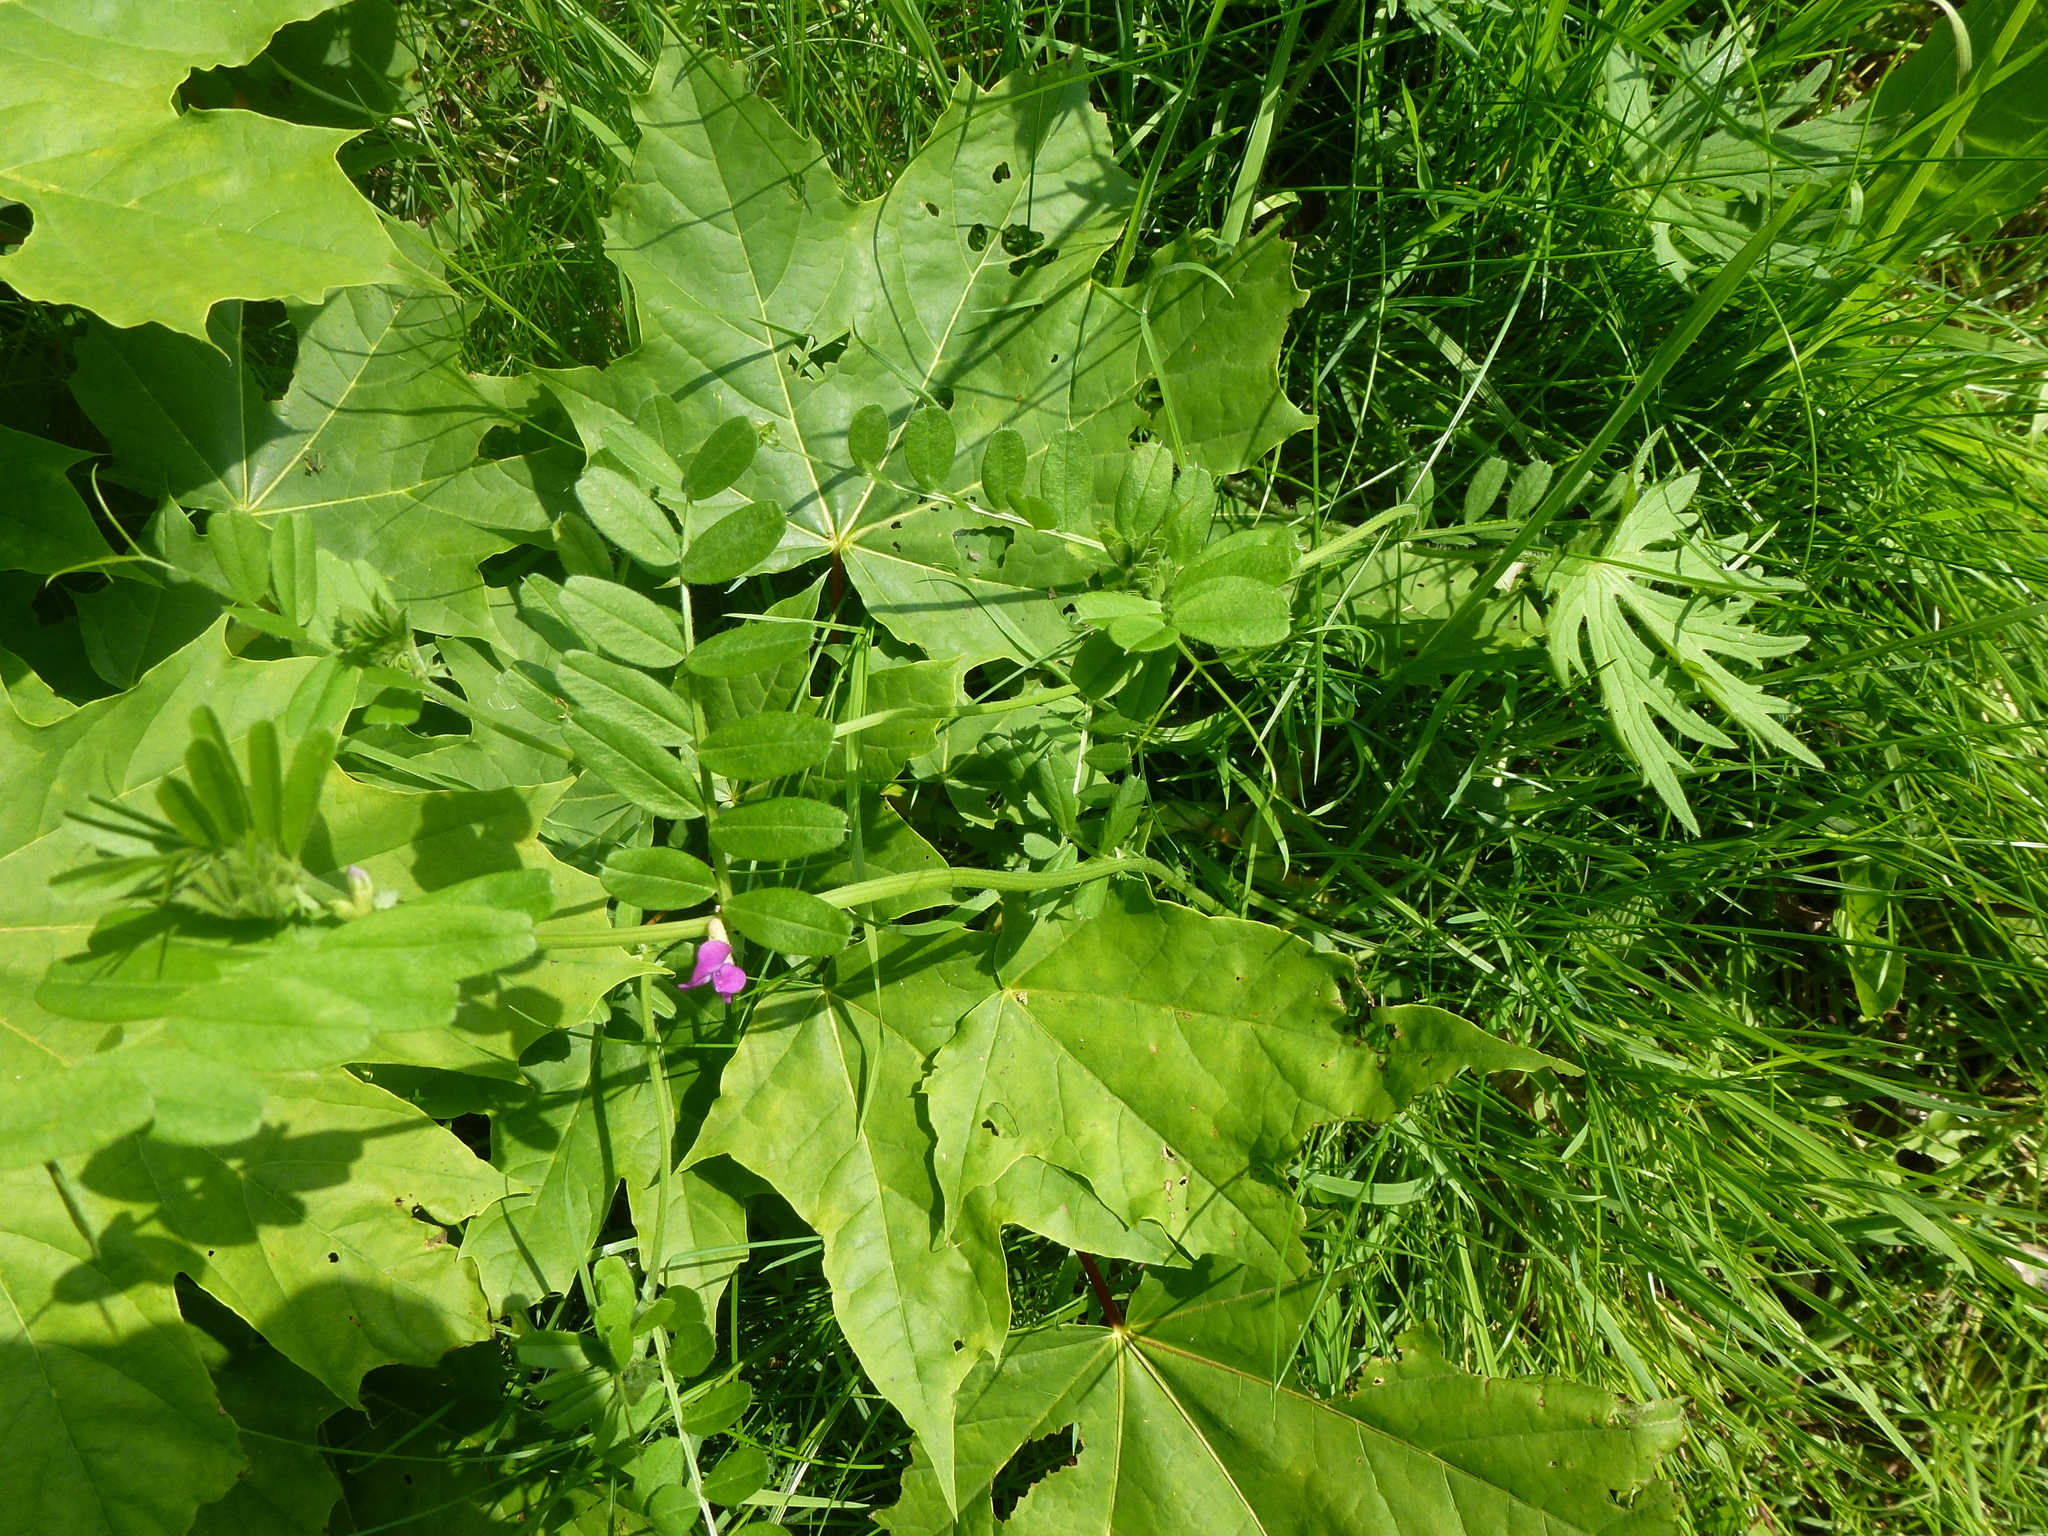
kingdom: Plantae
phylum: Tracheophyta
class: Magnoliopsida
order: Fabales
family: Fabaceae
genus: Vicia
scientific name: Vicia sativa
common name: Garden vetch
